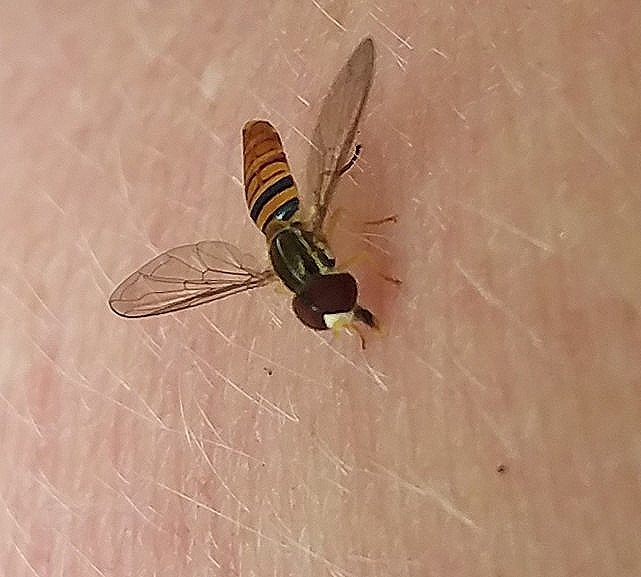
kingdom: Animalia
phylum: Arthropoda
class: Insecta
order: Diptera
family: Syrphidae
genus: Toxomerus
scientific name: Toxomerus politus
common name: Maize calligrapher
